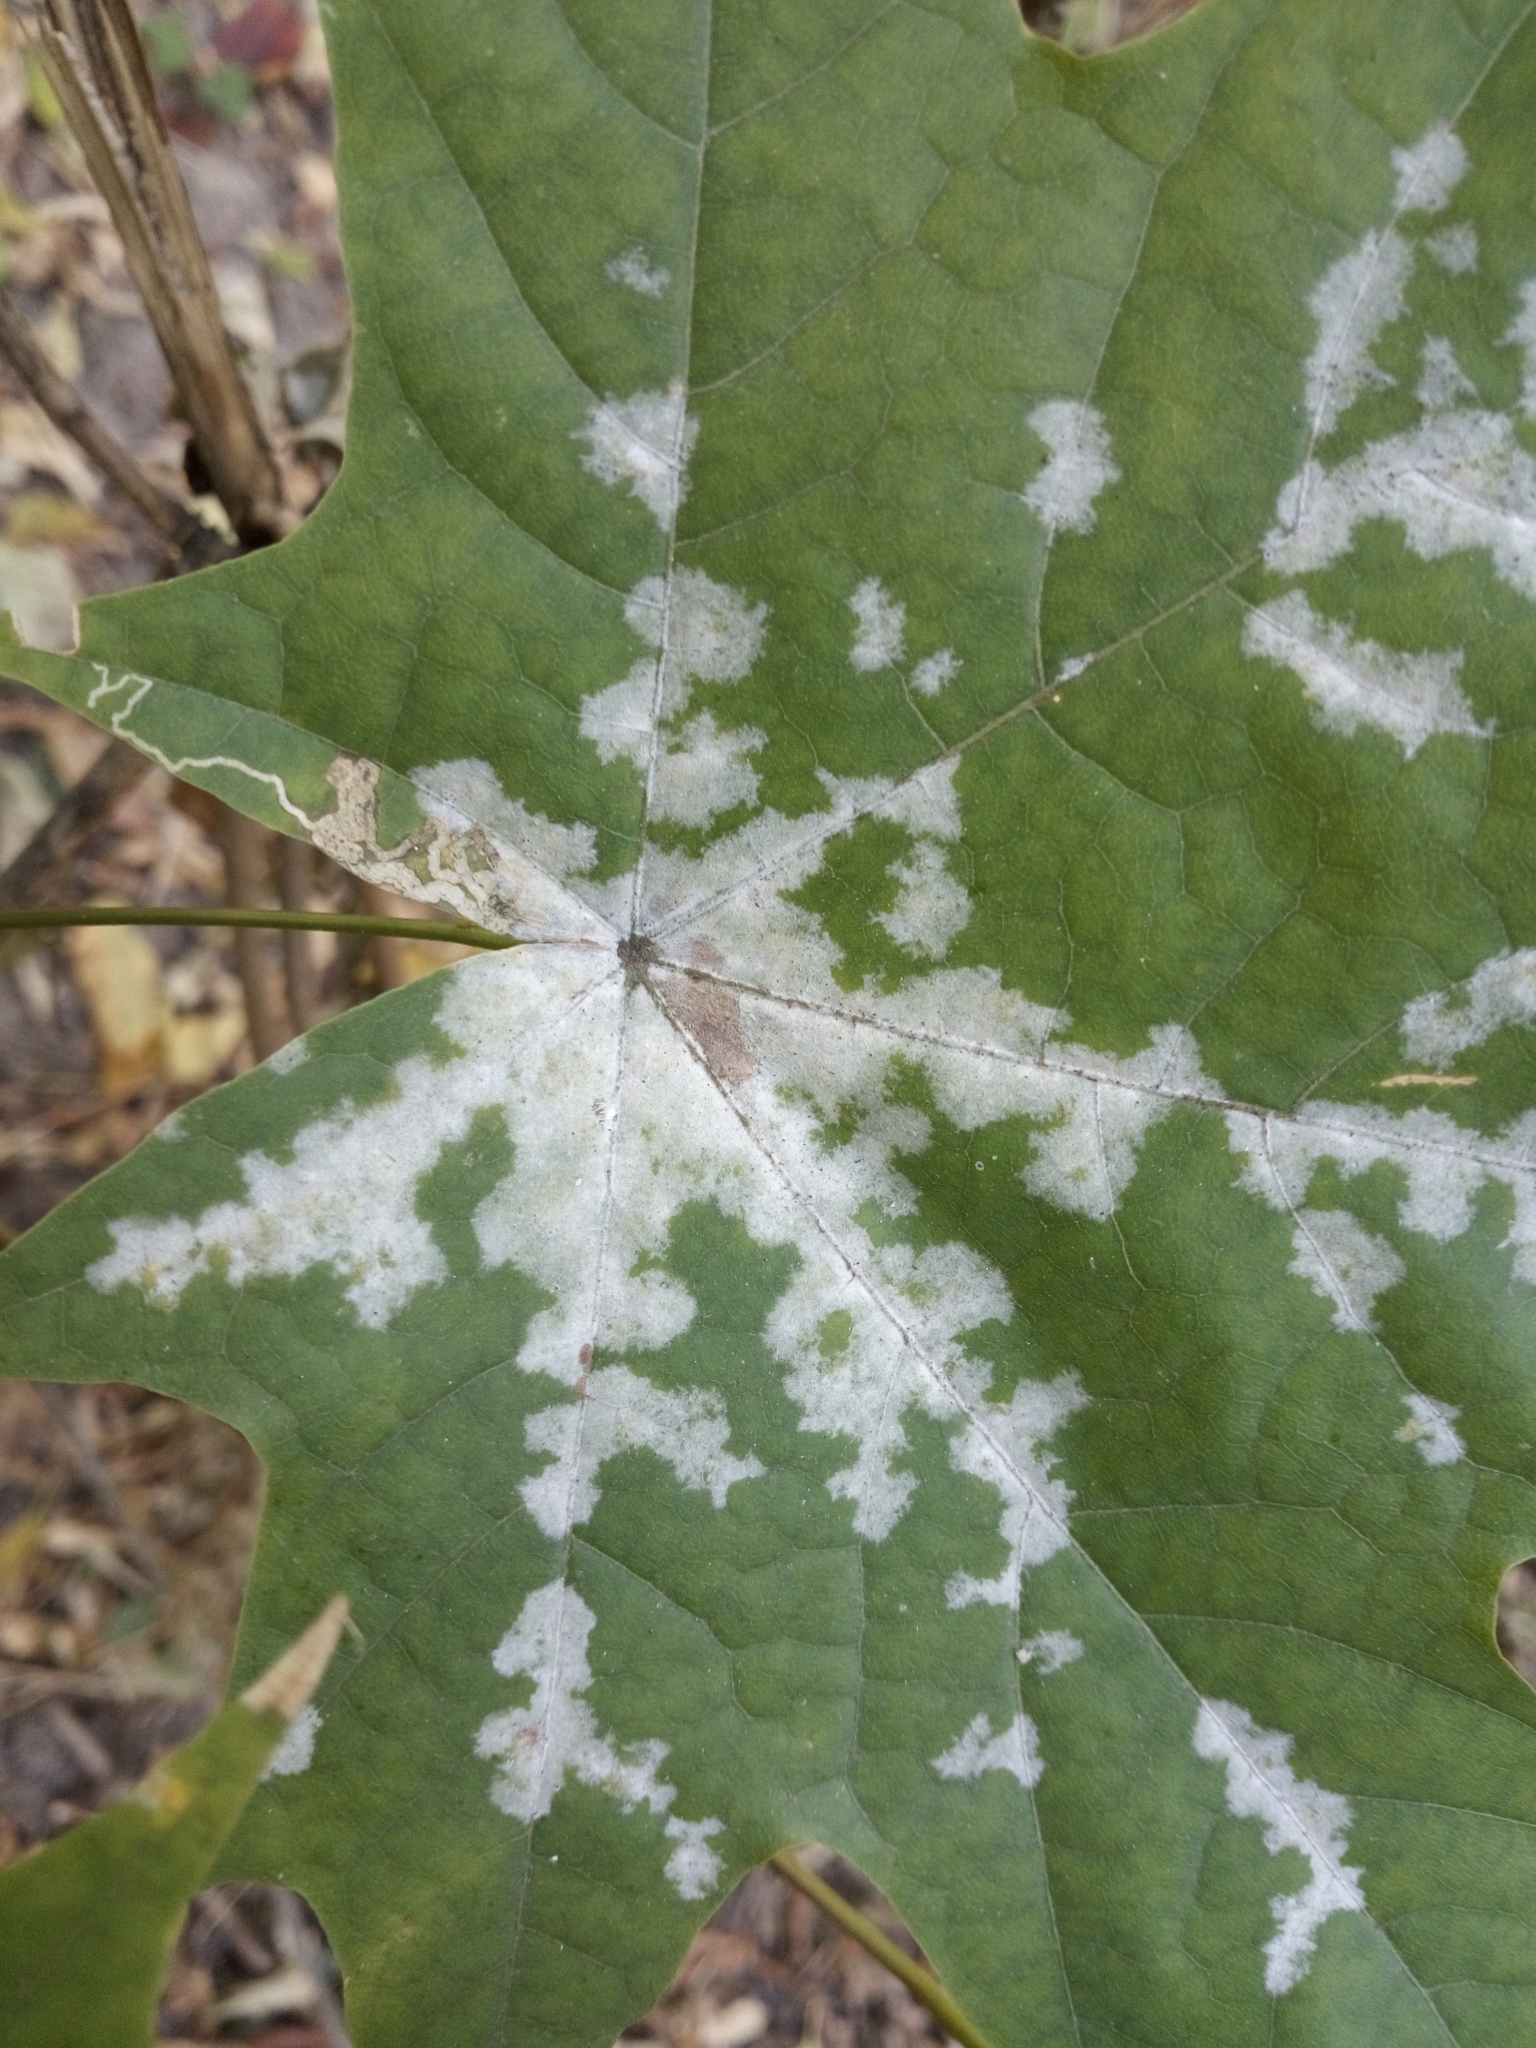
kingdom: Fungi
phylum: Ascomycota
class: Leotiomycetes
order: Helotiales
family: Erysiphaceae
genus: Sawadaea
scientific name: Sawadaea tulasnei
